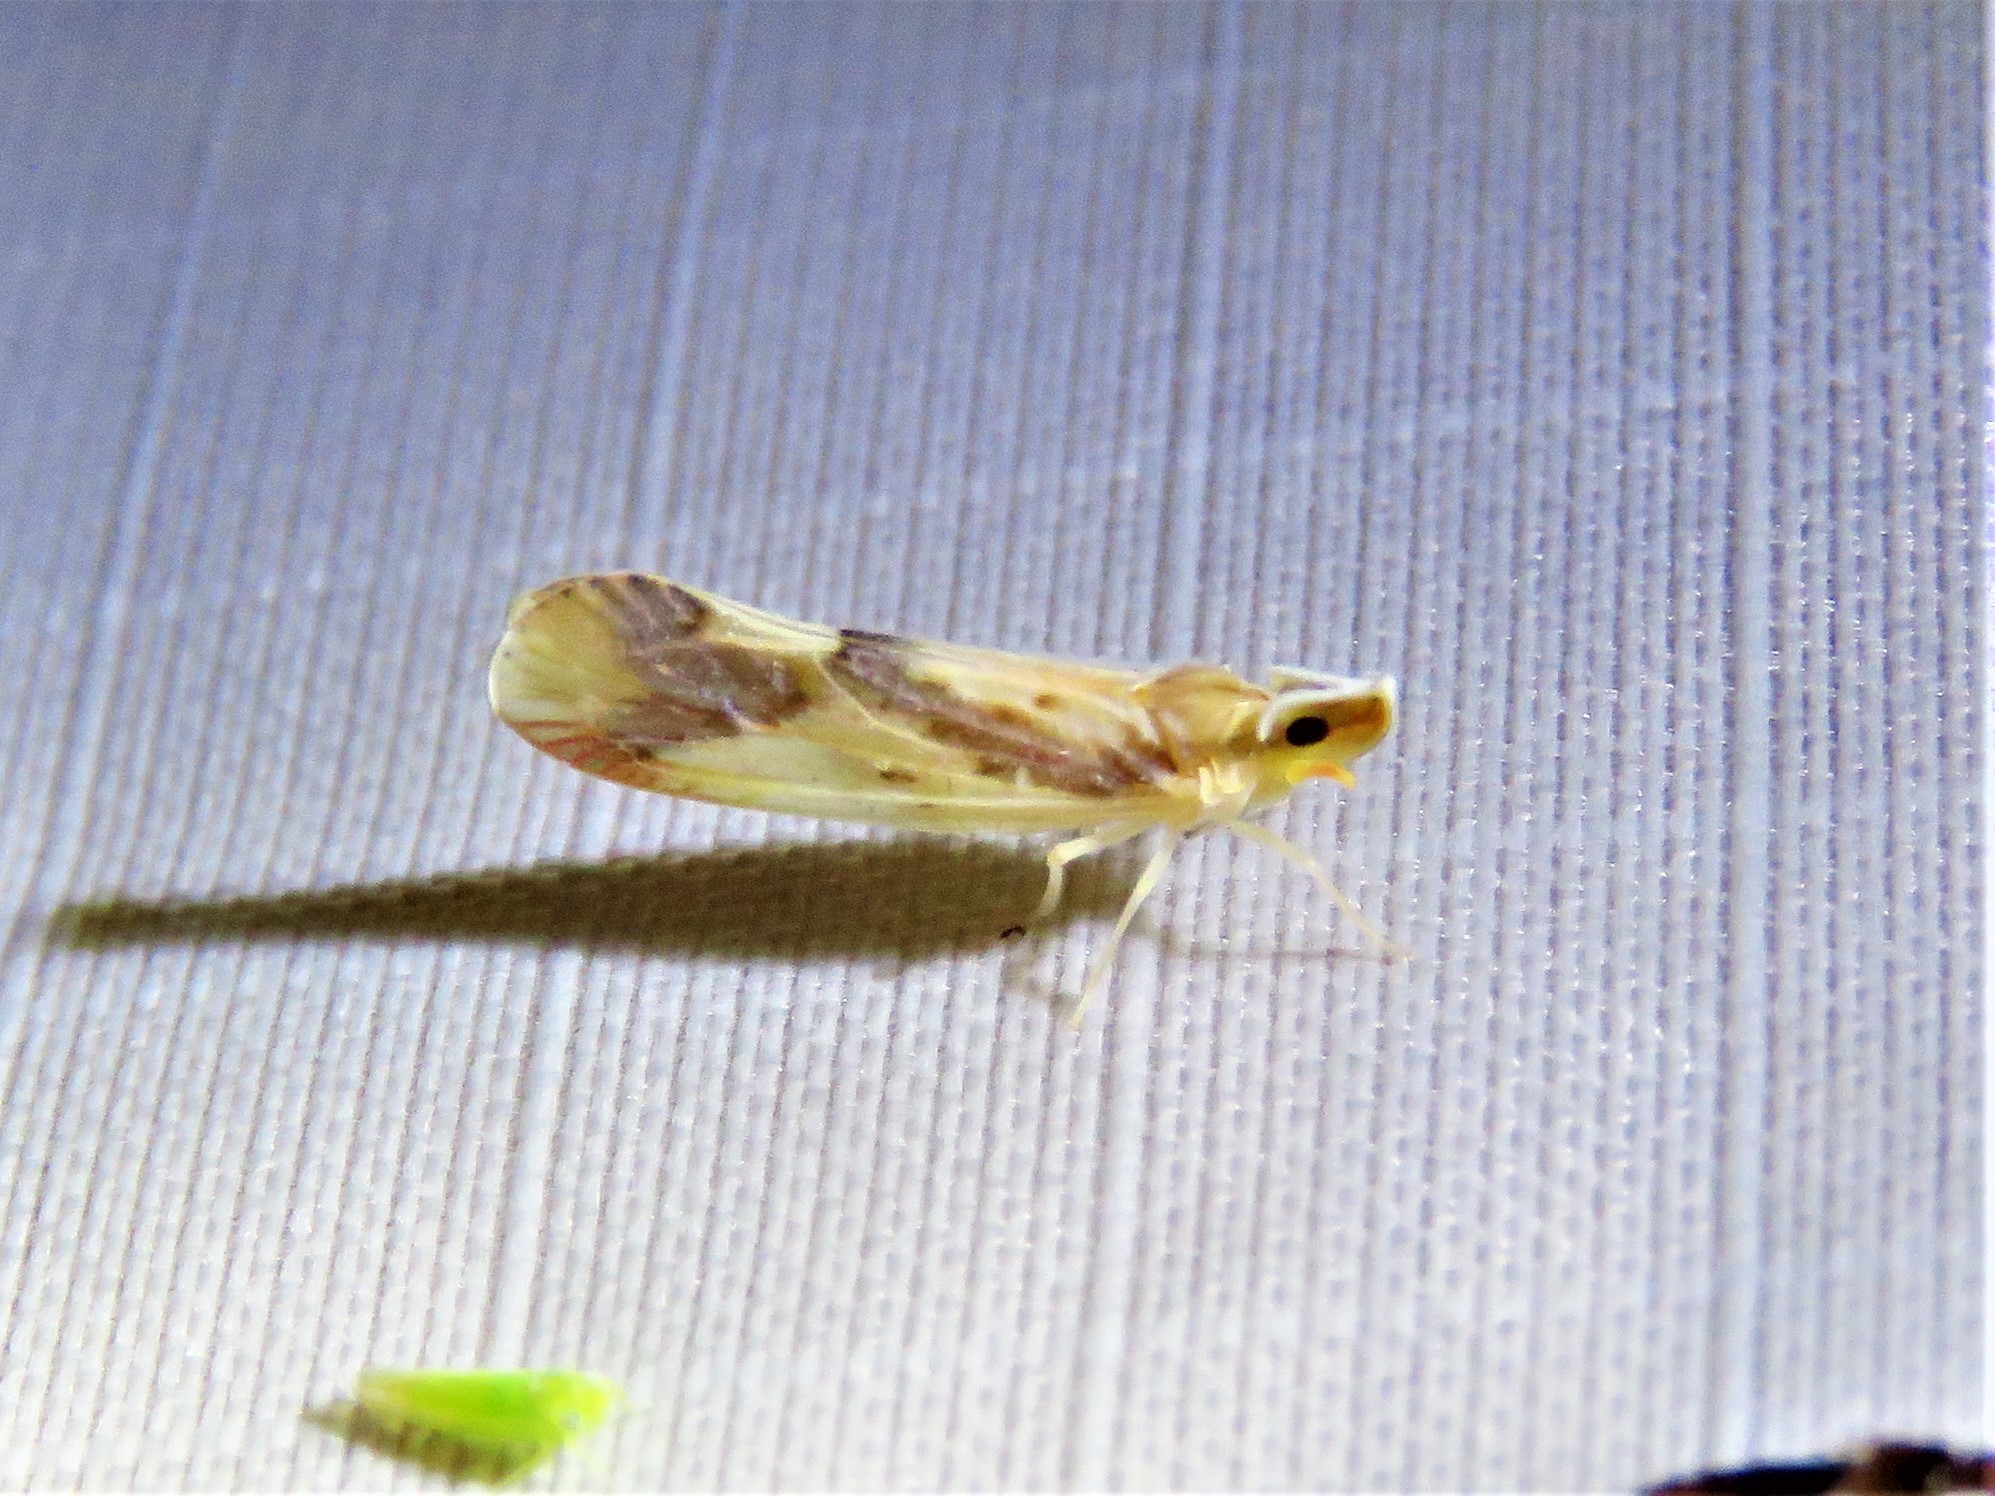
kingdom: Animalia
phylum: Arthropoda
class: Insecta
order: Hemiptera
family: Derbidae
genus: Otiocerus
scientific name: Otiocerus reaumurii
